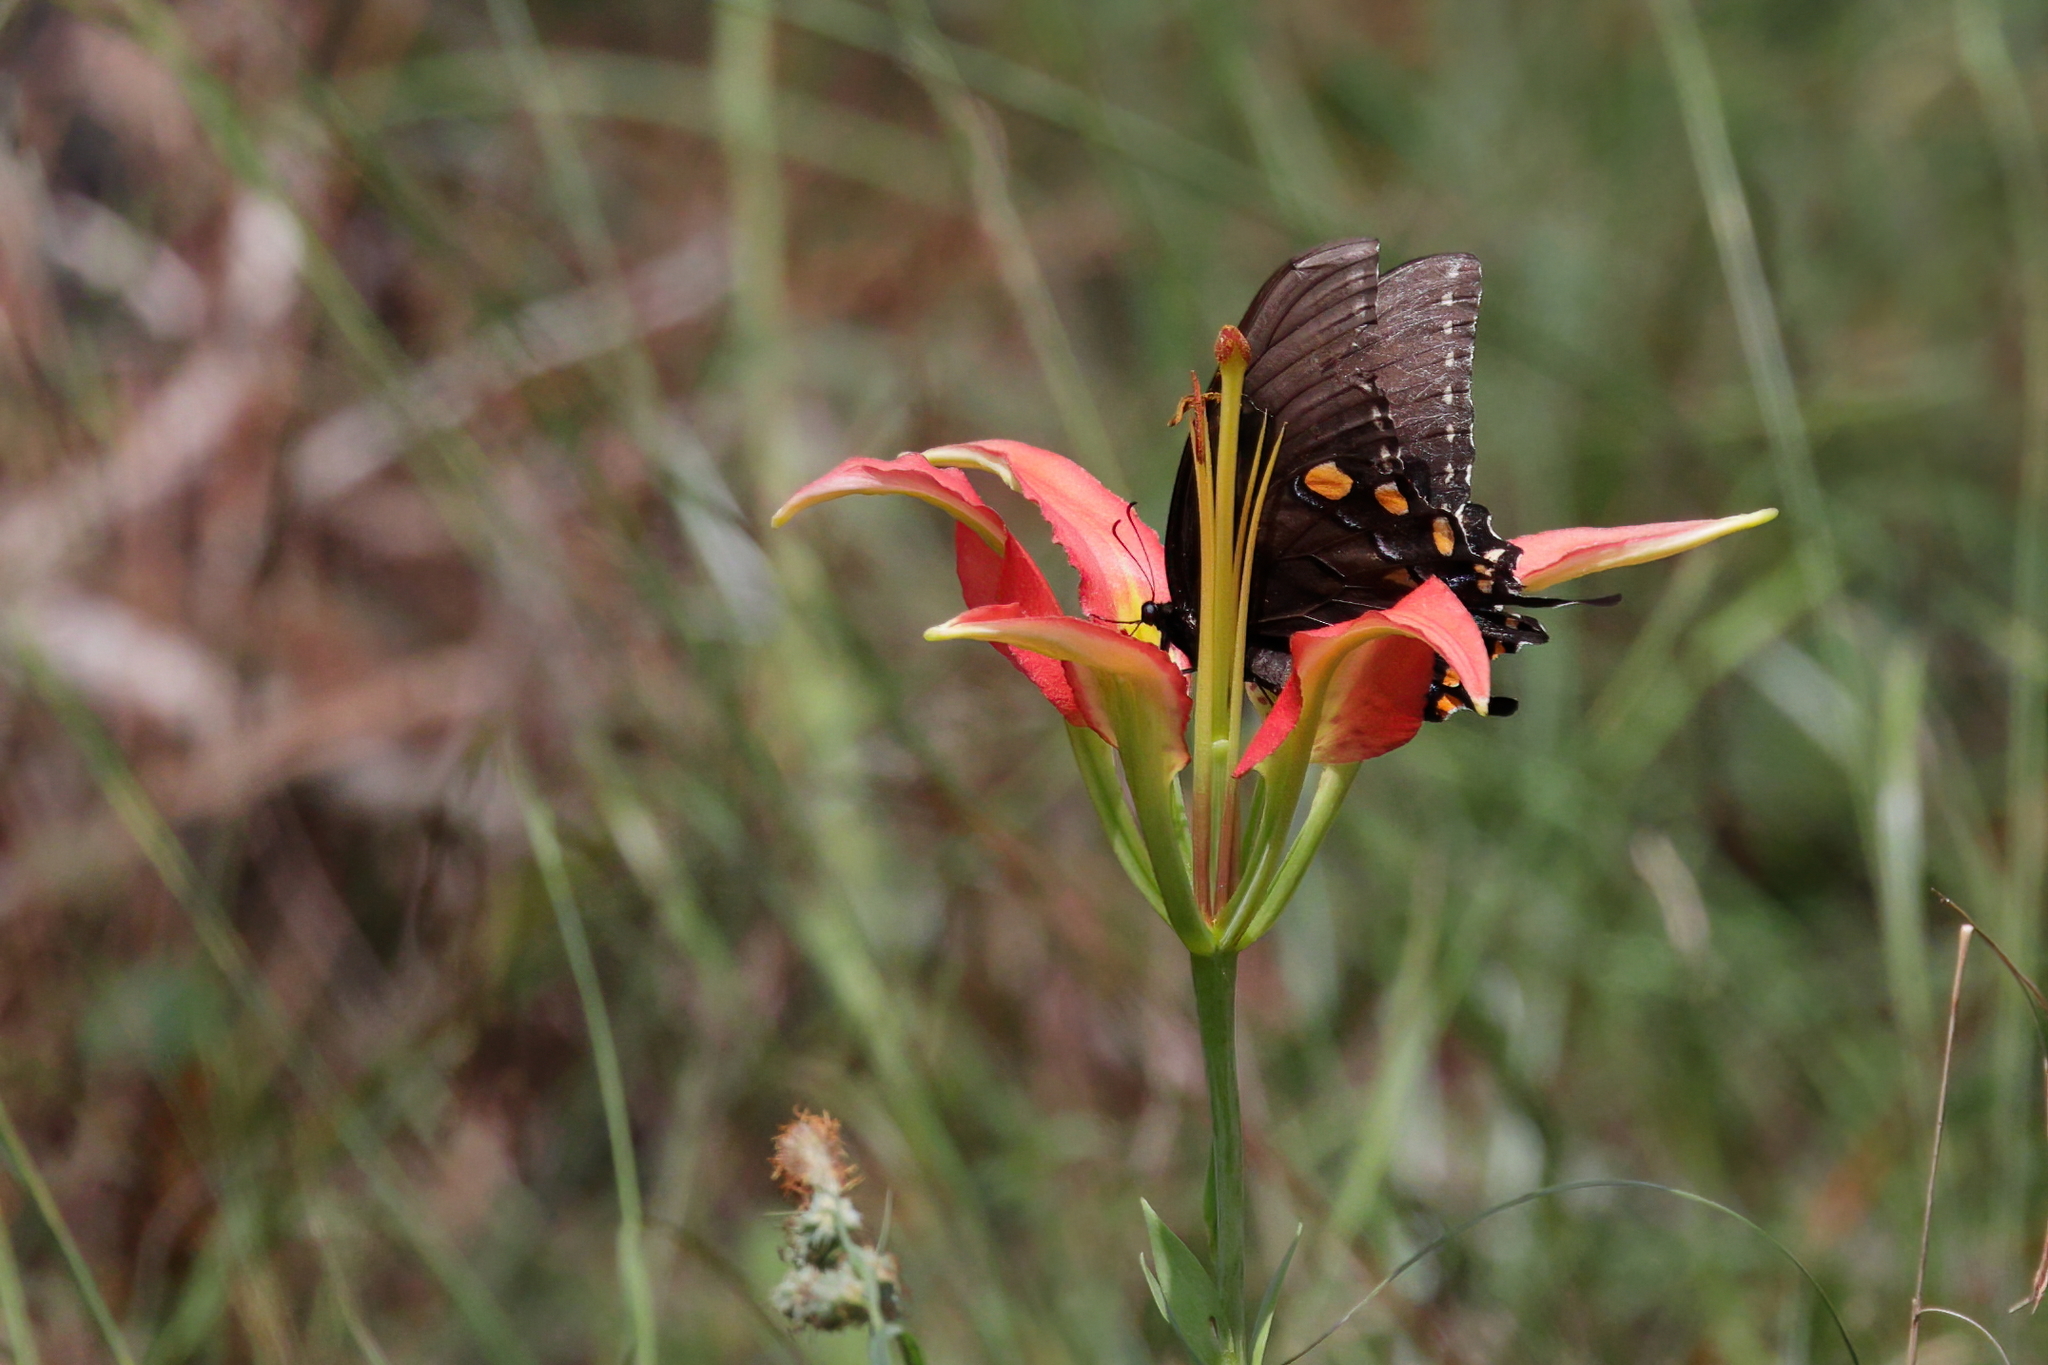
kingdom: Animalia
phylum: Arthropoda
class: Insecta
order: Lepidoptera
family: Papilionidae
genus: Papilio
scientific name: Papilio glaucus
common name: Tiger swallowtail
